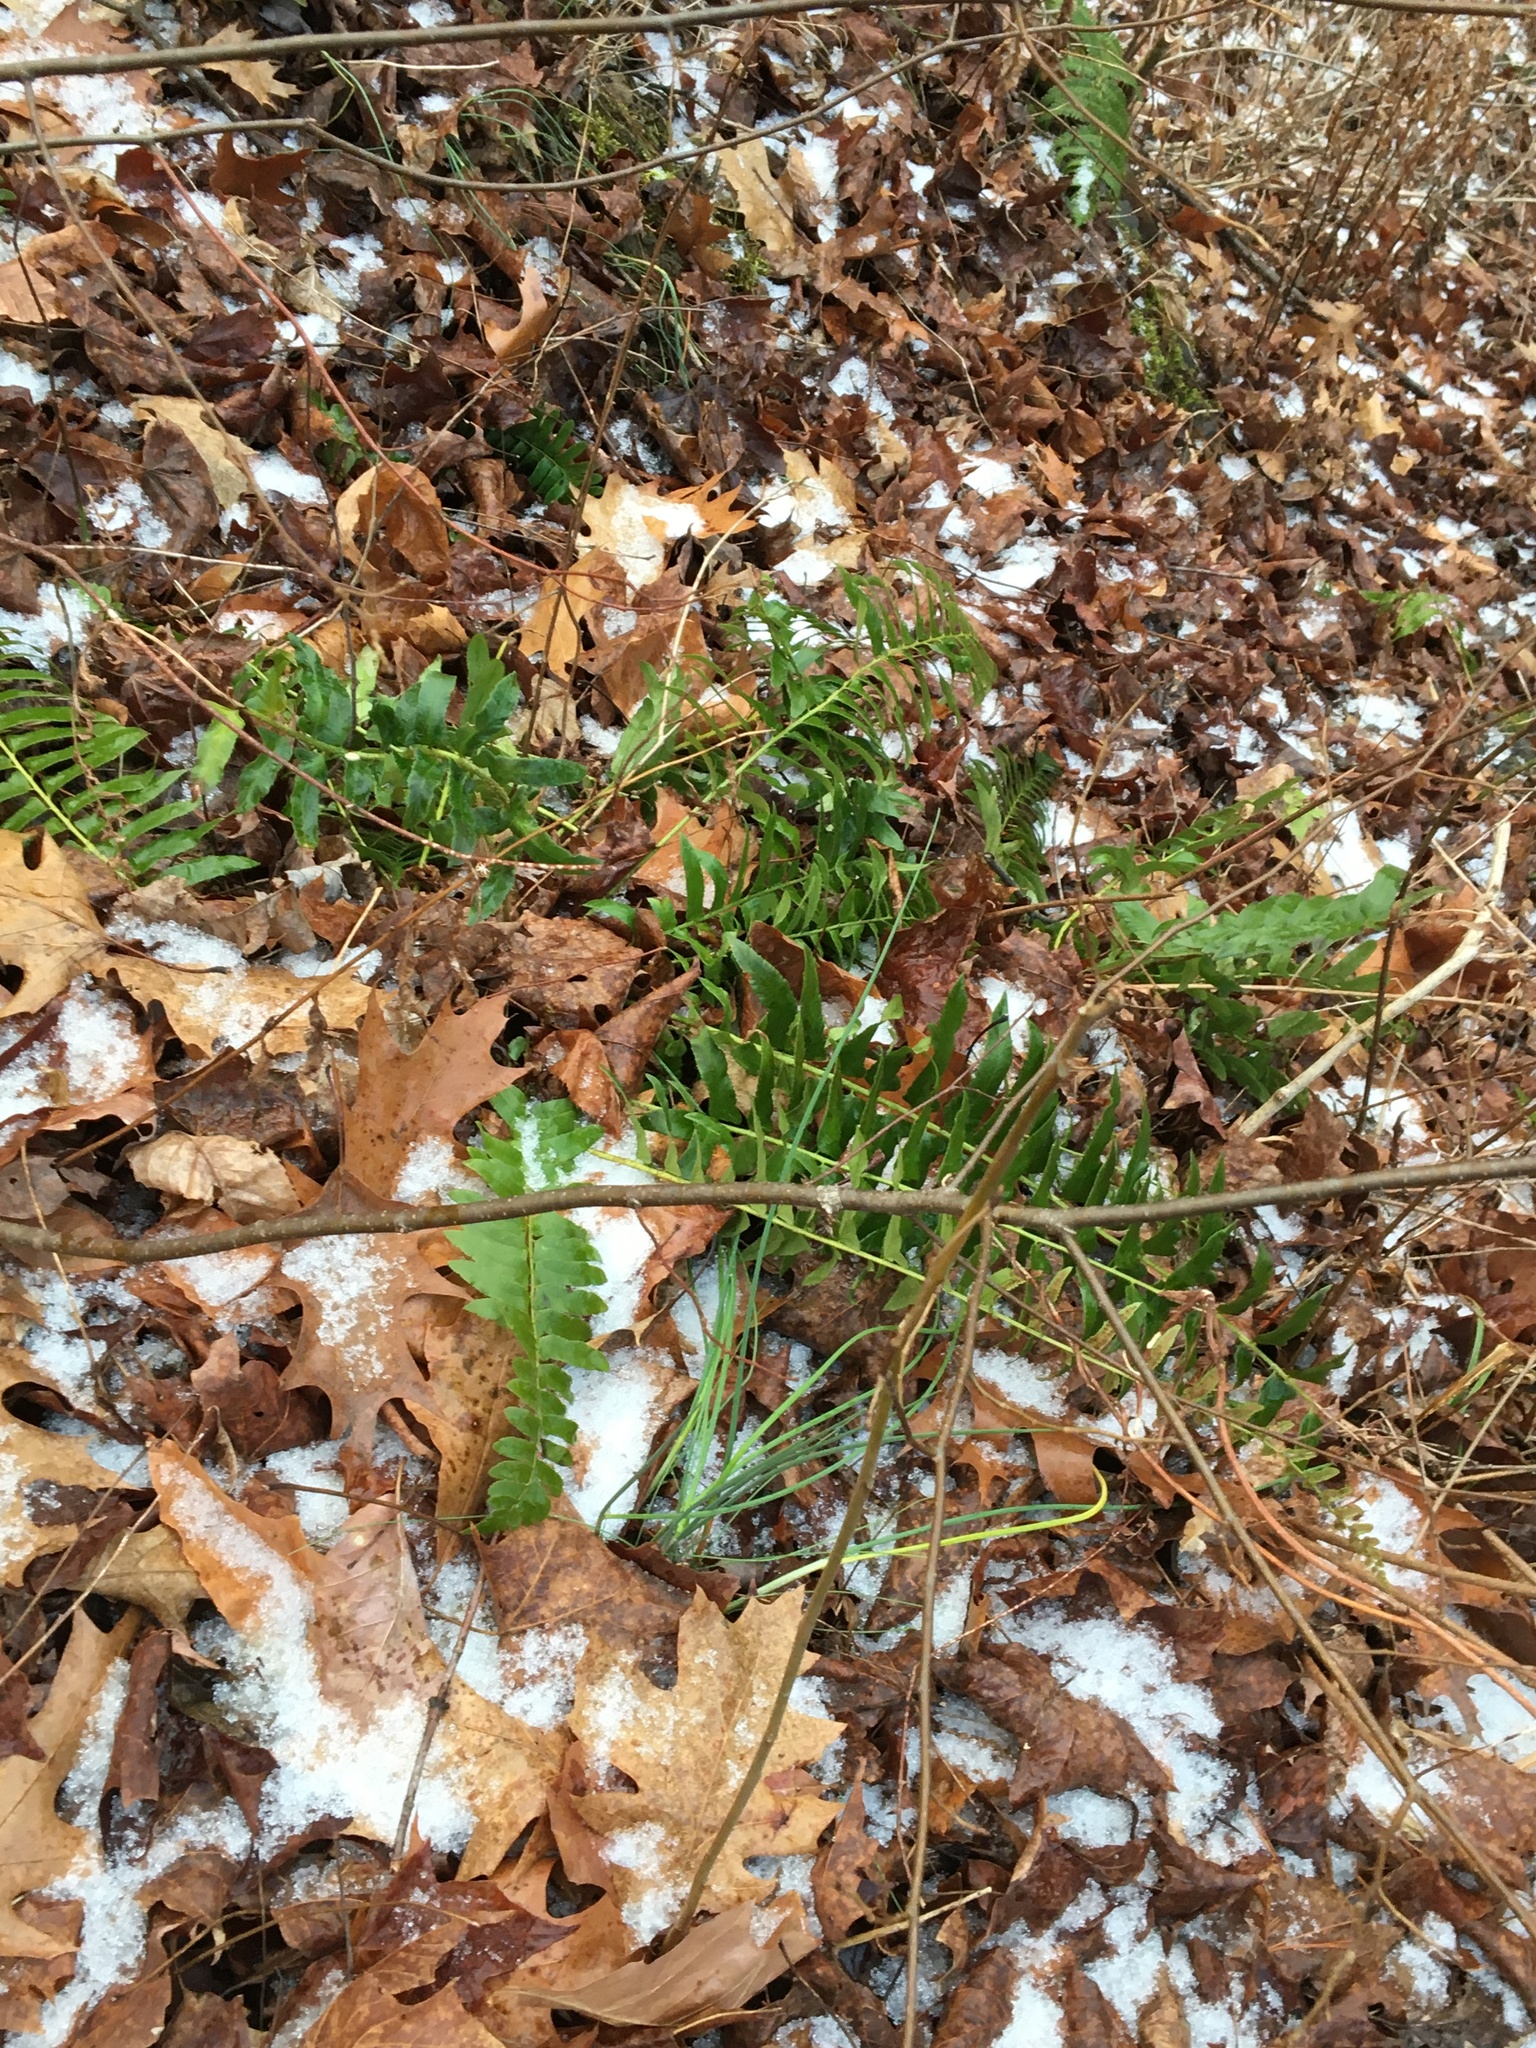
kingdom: Plantae
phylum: Tracheophyta
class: Polypodiopsida
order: Polypodiales
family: Dryopteridaceae
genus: Polystichum
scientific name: Polystichum acrostichoides
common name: Christmas fern
